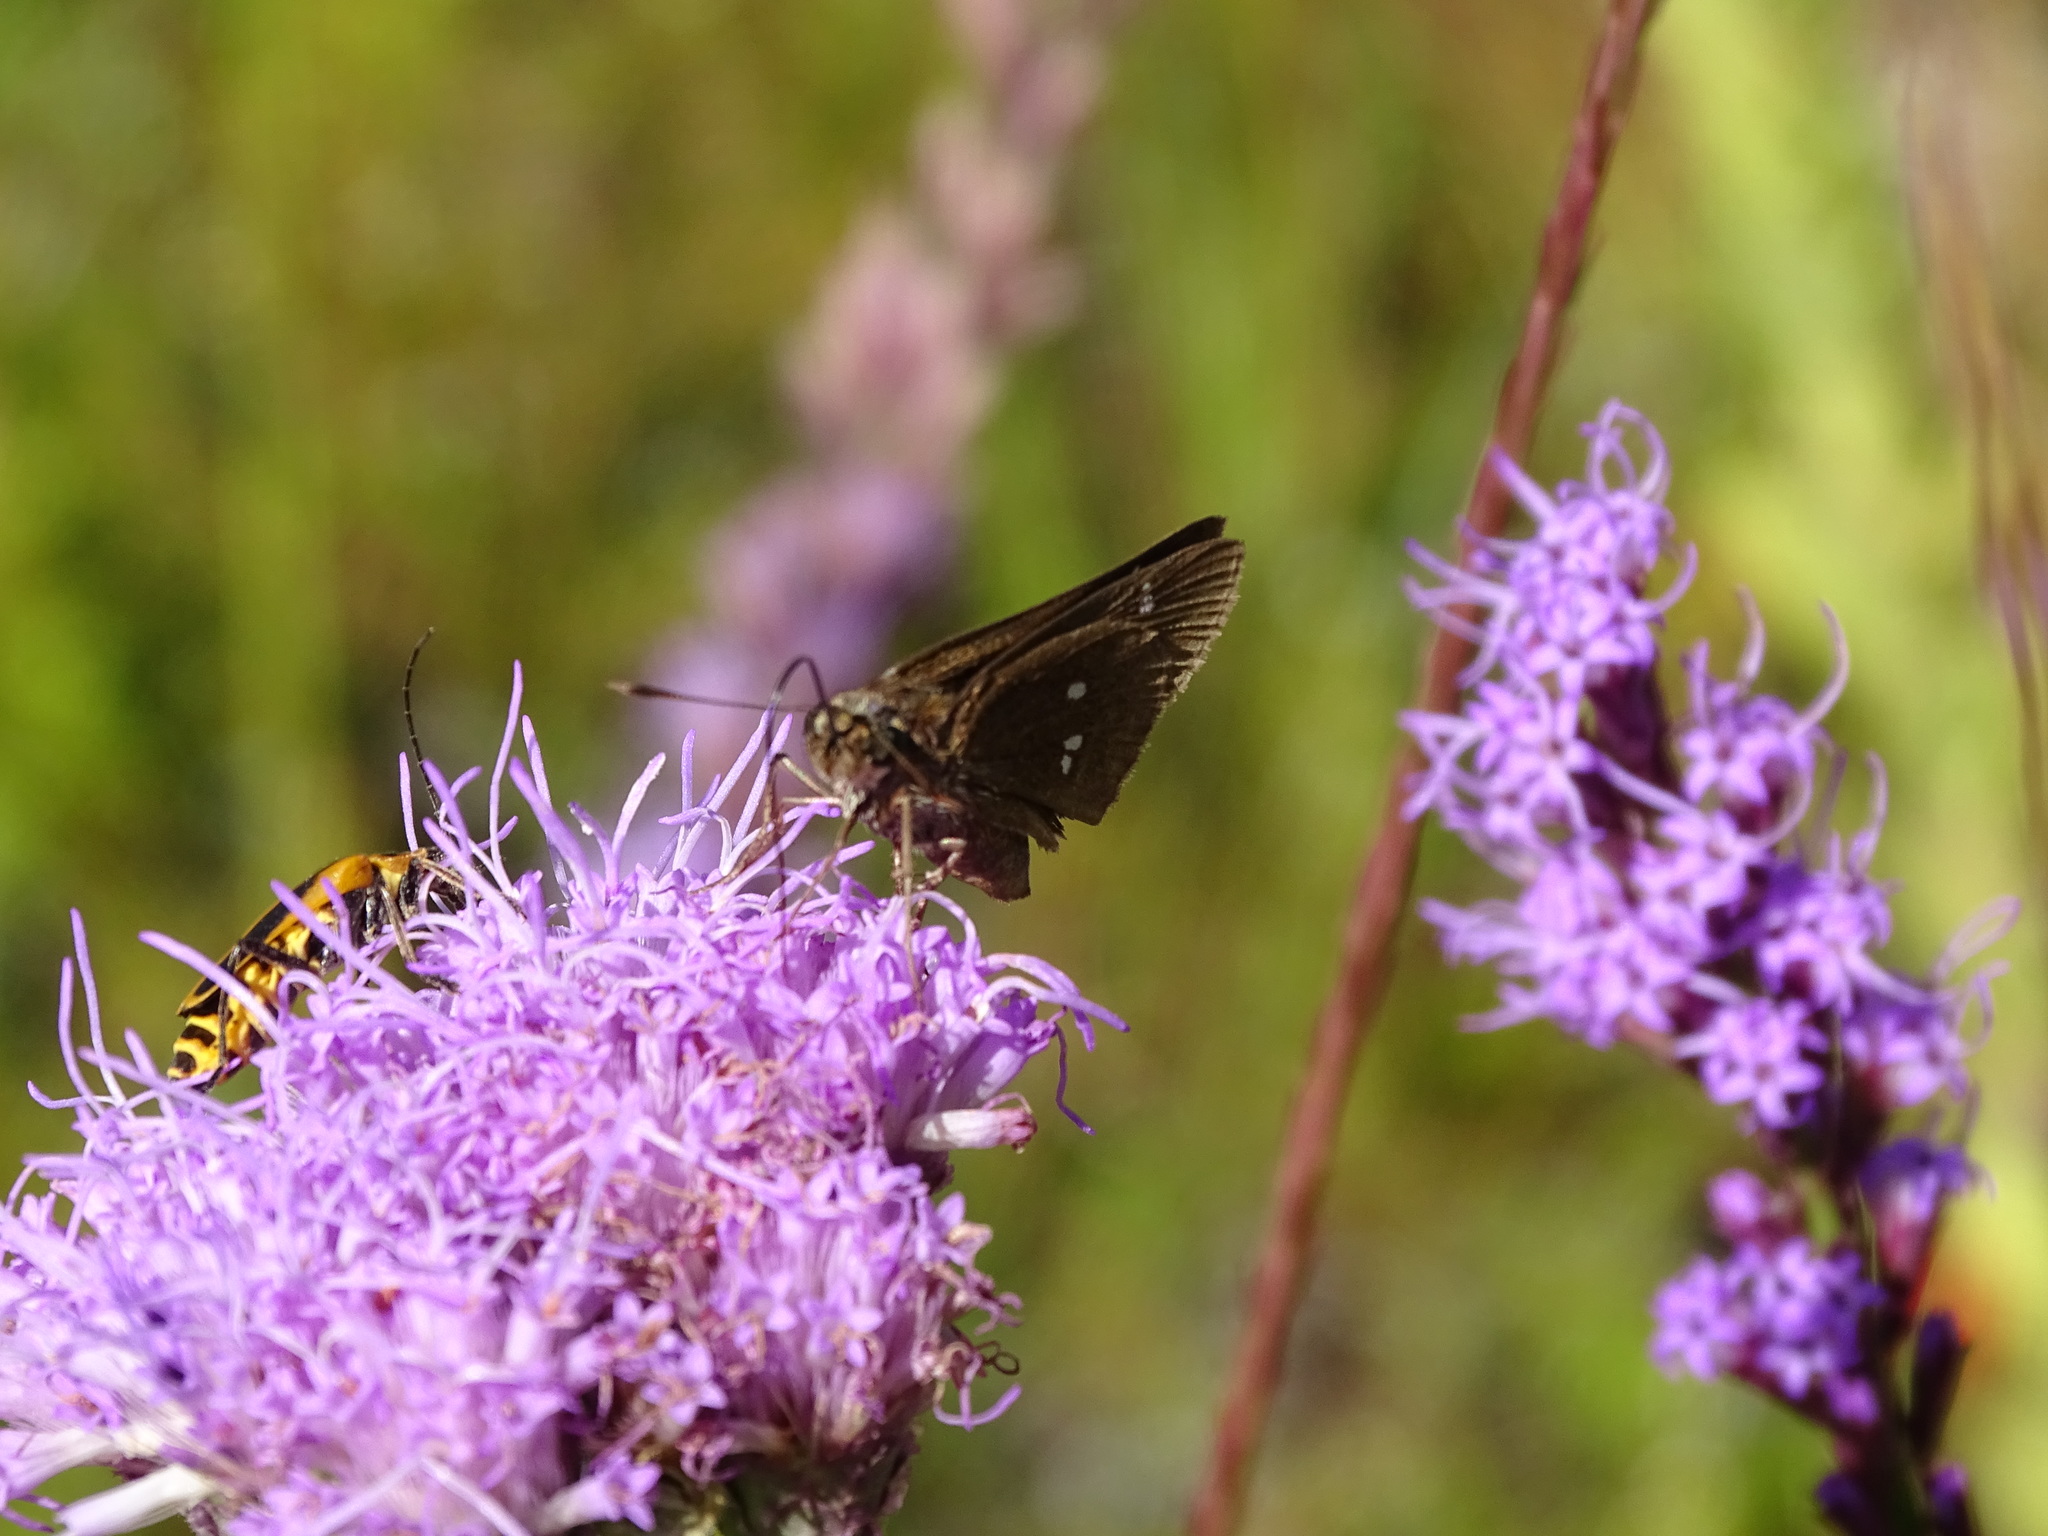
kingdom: Animalia
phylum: Arthropoda
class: Insecta
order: Lepidoptera
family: Hesperiidae
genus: Oligoria
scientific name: Oligoria maculata
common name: Twin-spot skipper
